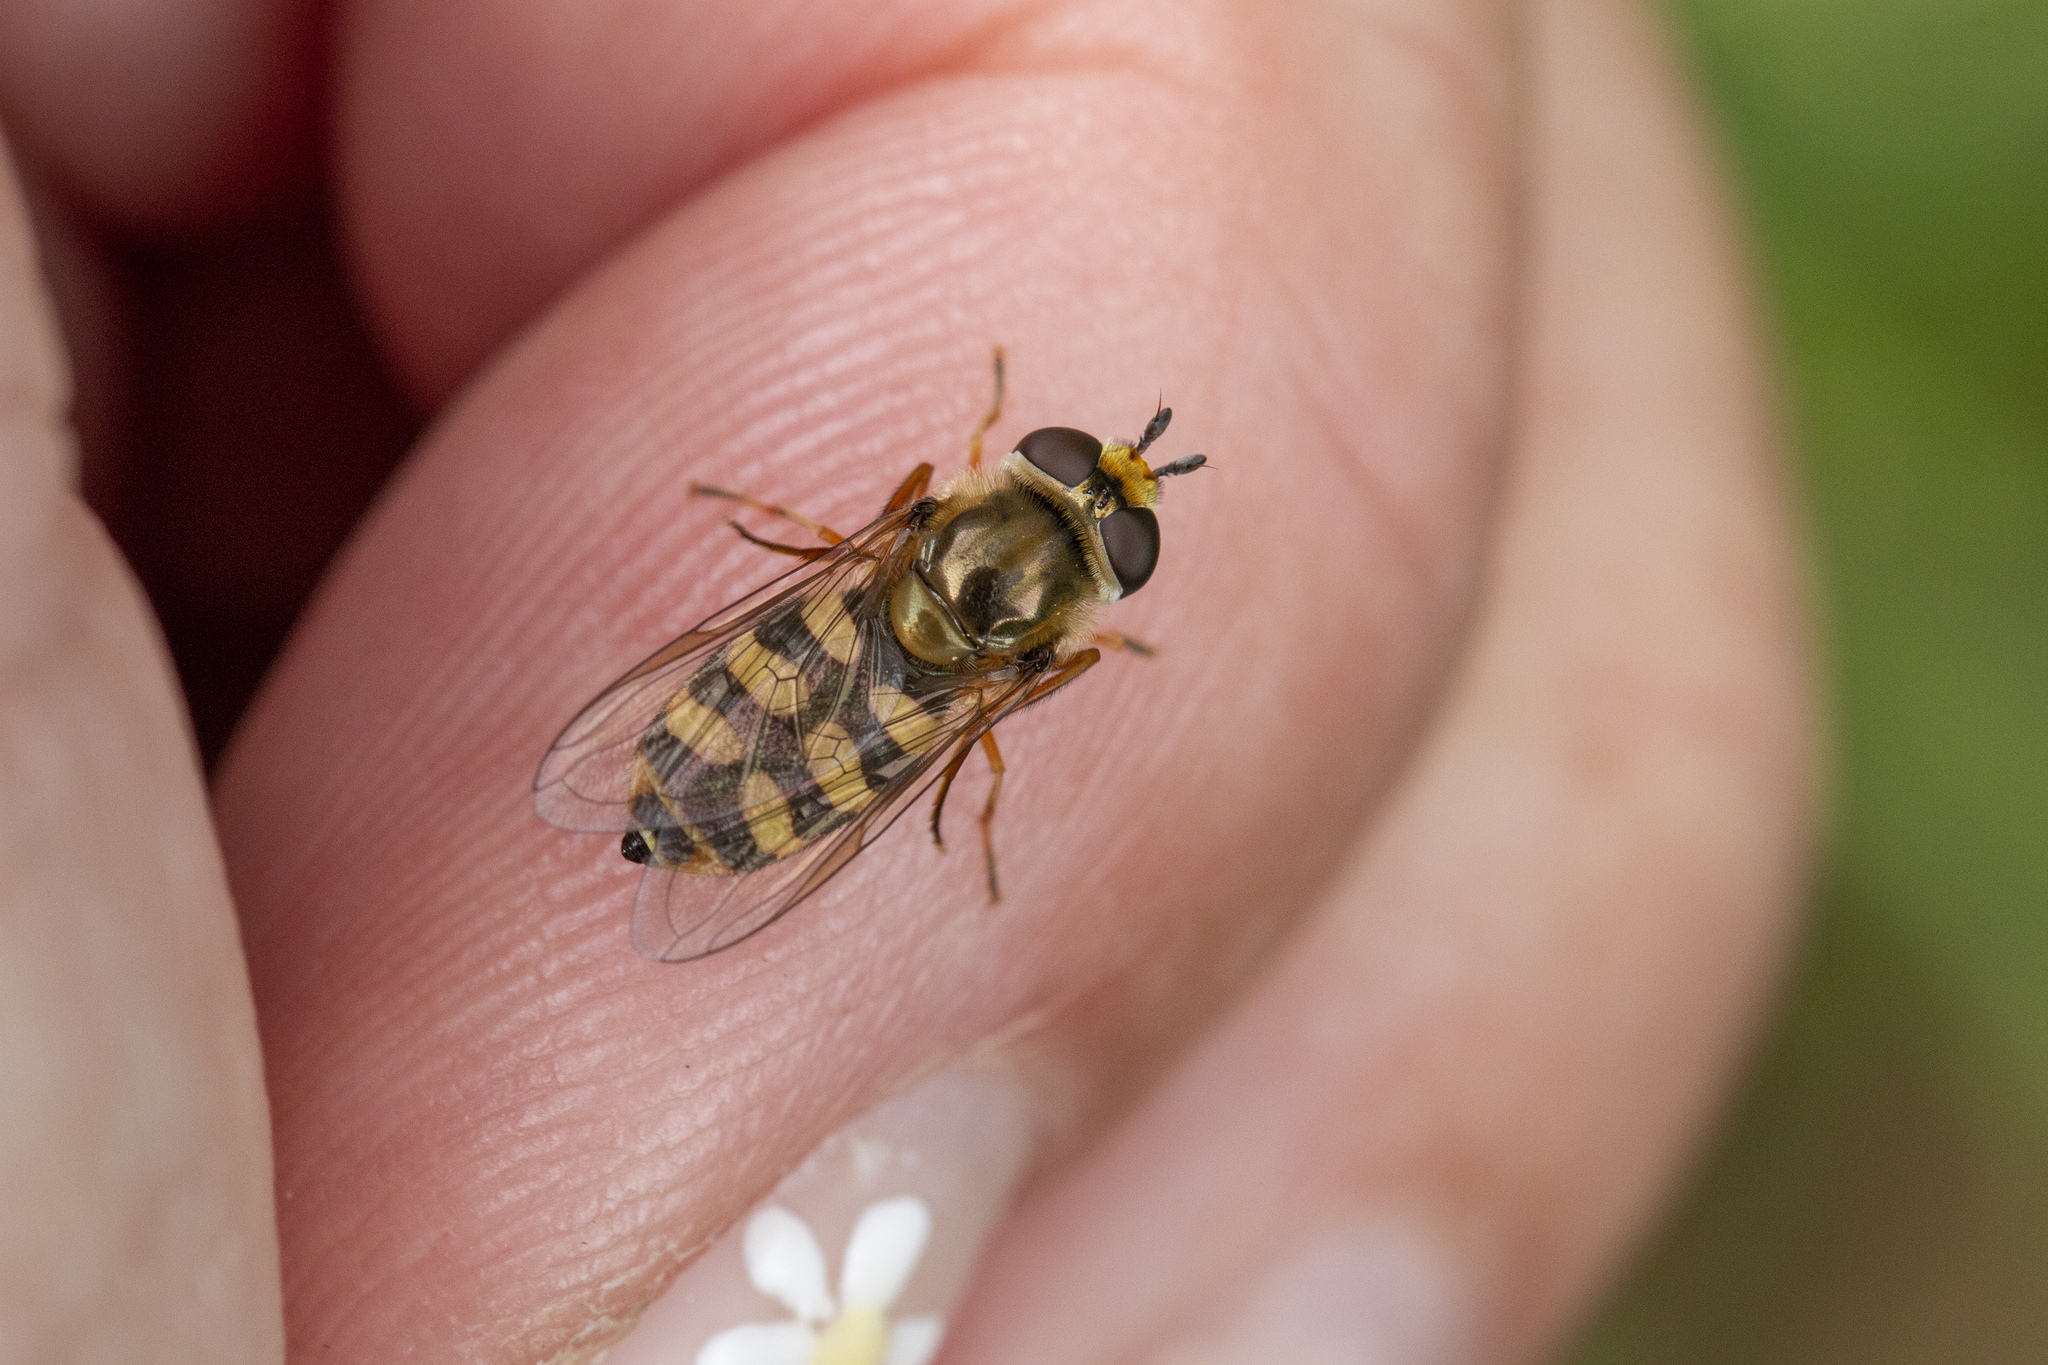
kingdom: Animalia
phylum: Arthropoda
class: Insecta
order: Diptera
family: Syrphidae
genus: Eupeodes
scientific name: Eupeodes corollae
